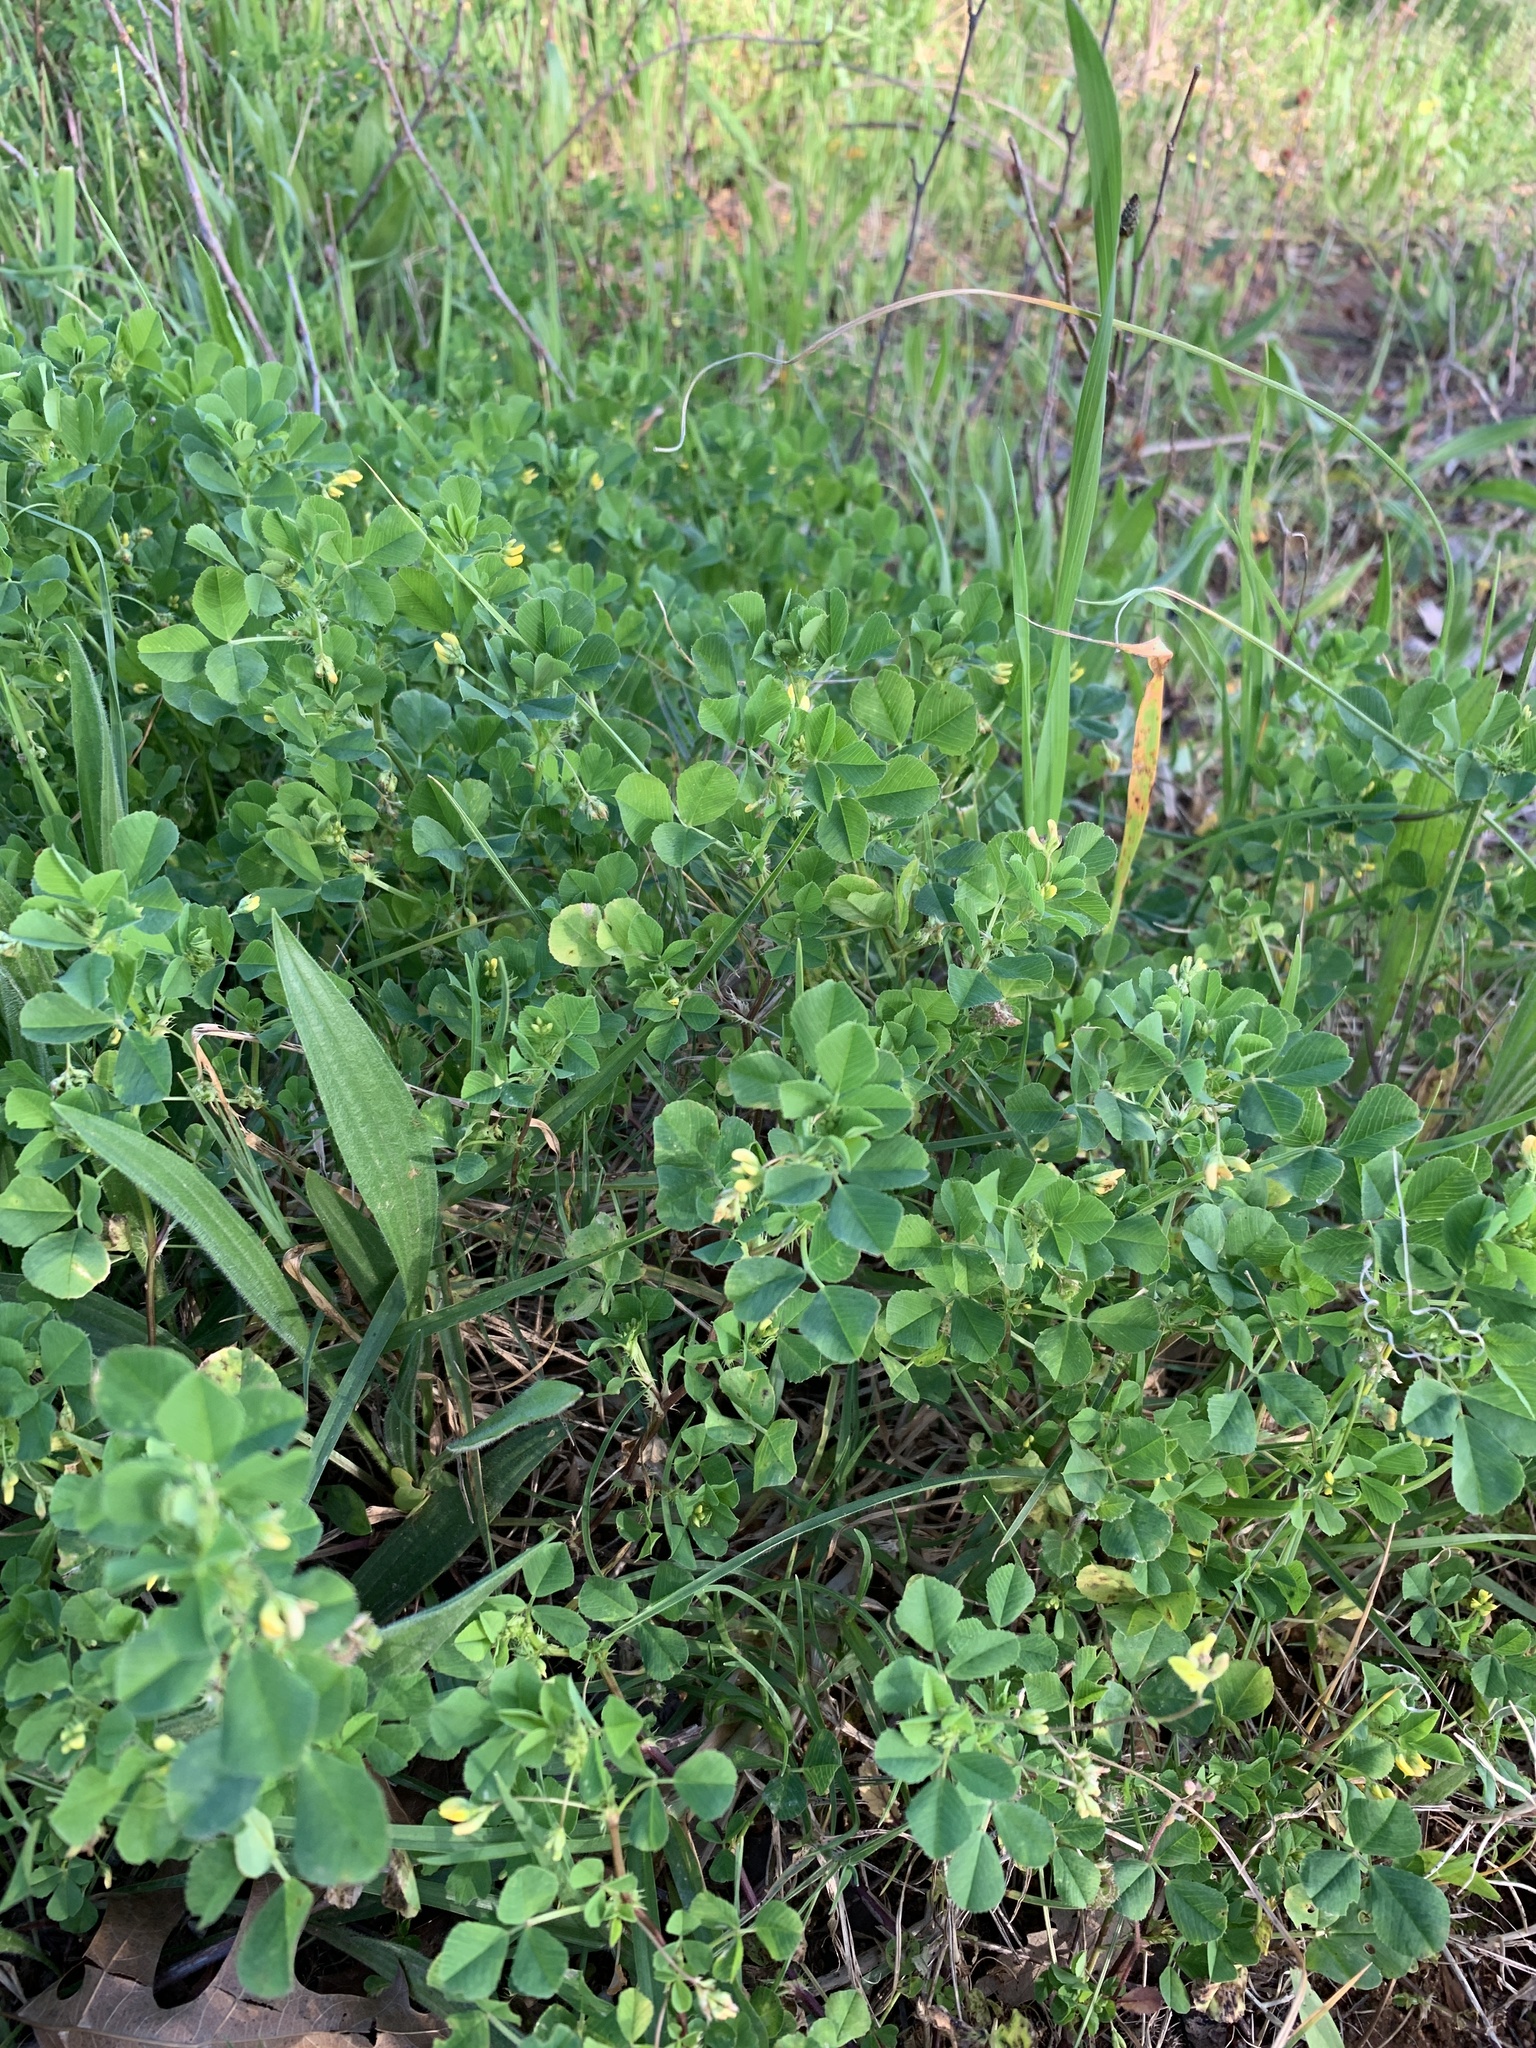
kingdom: Plantae
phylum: Tracheophyta
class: Magnoliopsida
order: Fabales
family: Fabaceae
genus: Medicago
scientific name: Medicago polymorpha
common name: Burclover
